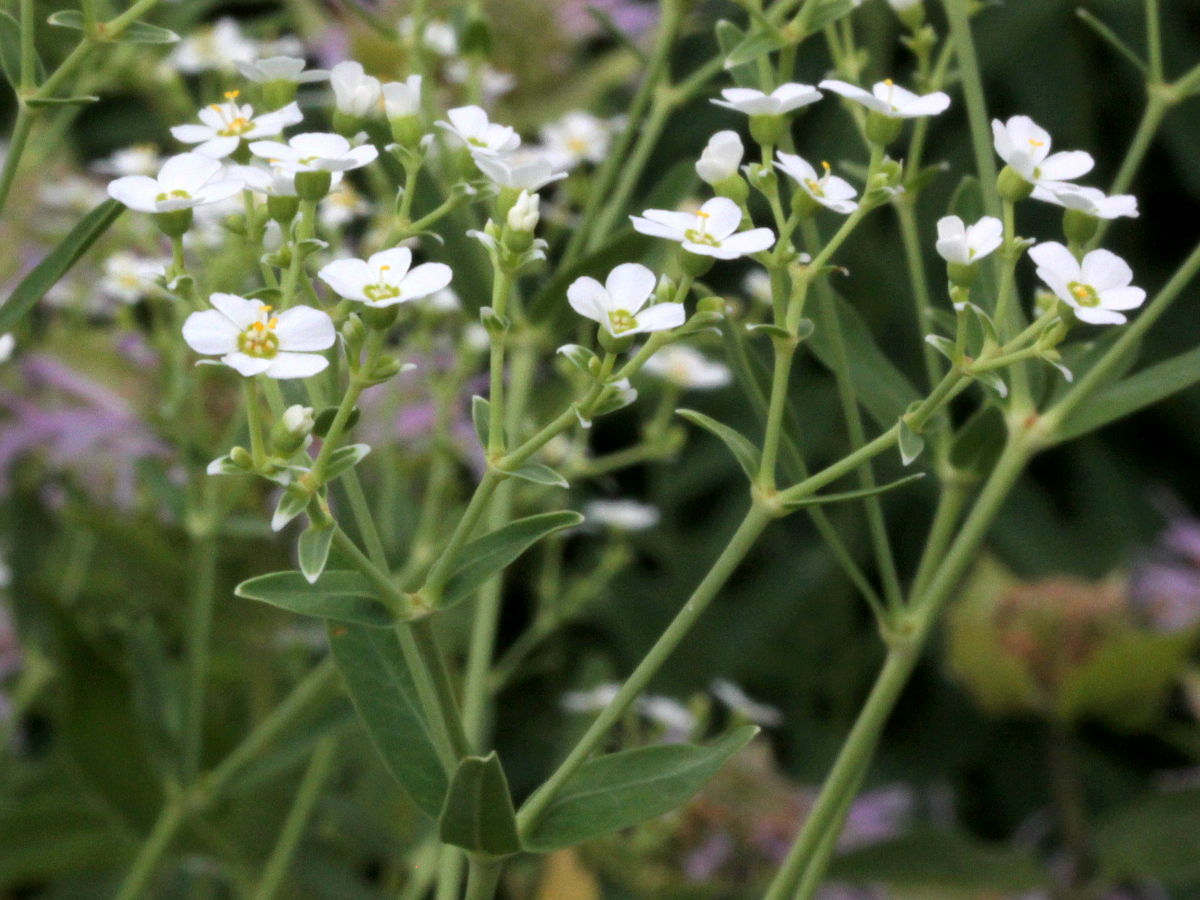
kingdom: Plantae
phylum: Tracheophyta
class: Magnoliopsida
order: Malpighiales
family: Euphorbiaceae
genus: Euphorbia
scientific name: Euphorbia corollata
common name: Flowering spurge
